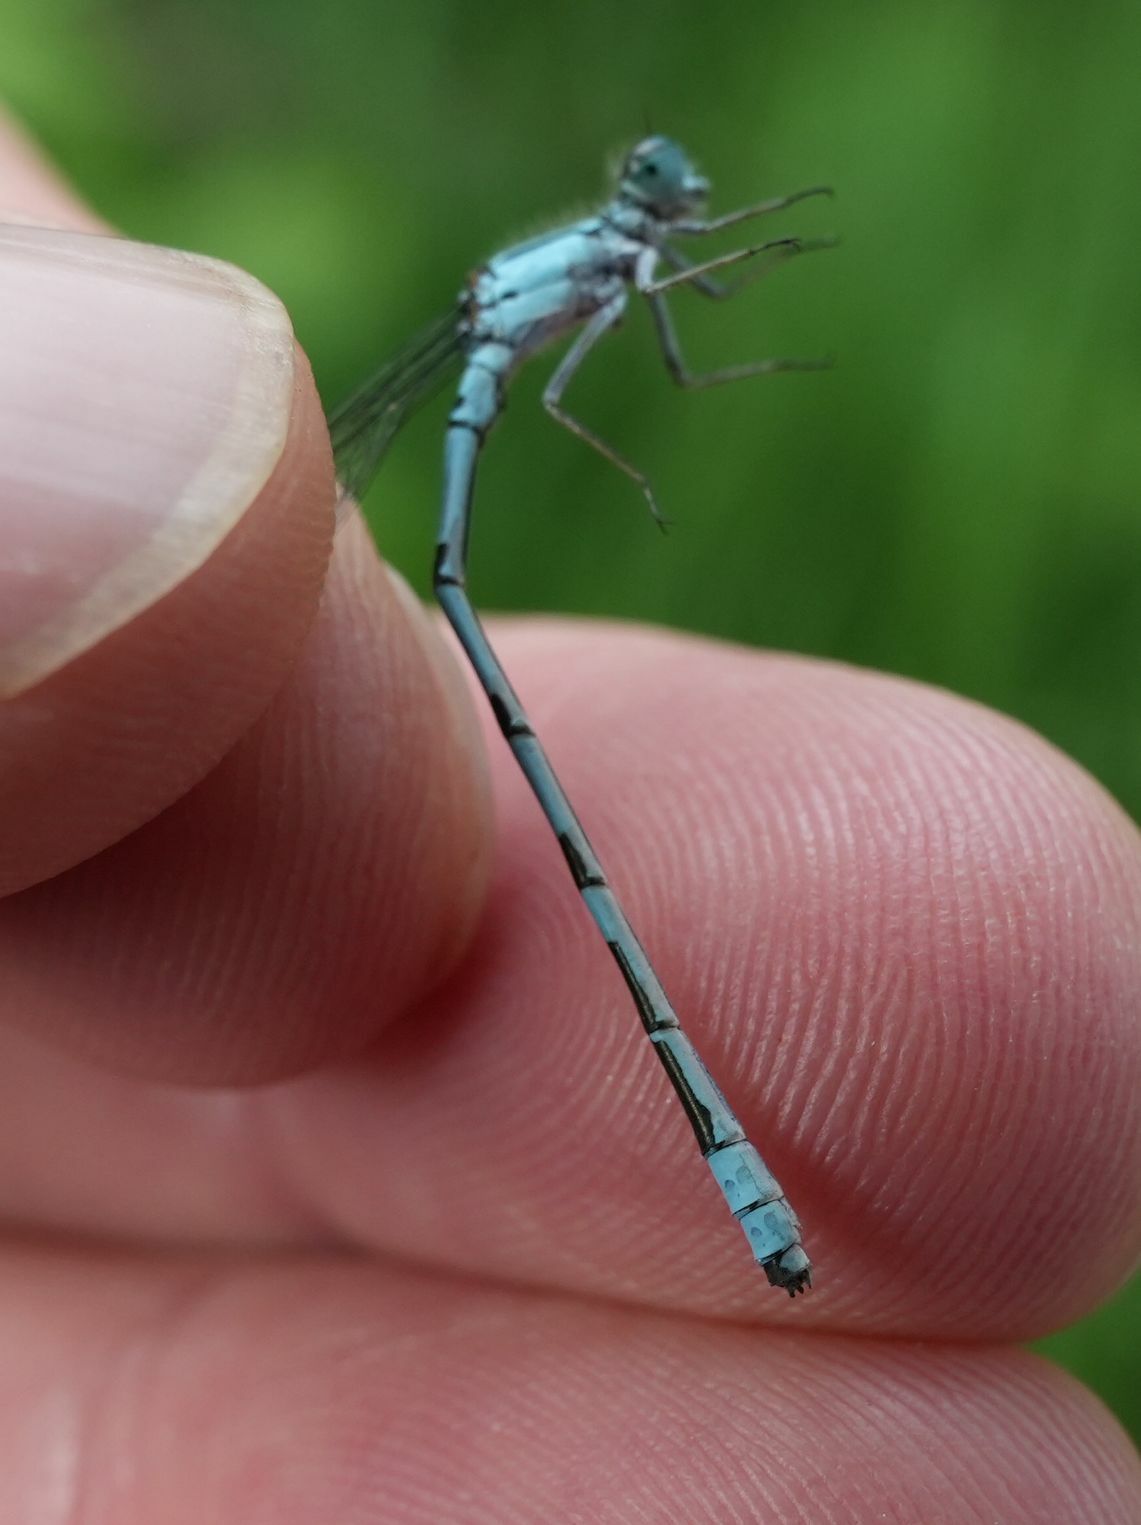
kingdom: Animalia
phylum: Arthropoda
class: Insecta
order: Odonata
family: Coenagrionidae
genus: Enallagma
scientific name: Enallagma ebrium
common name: Marsh bluet
